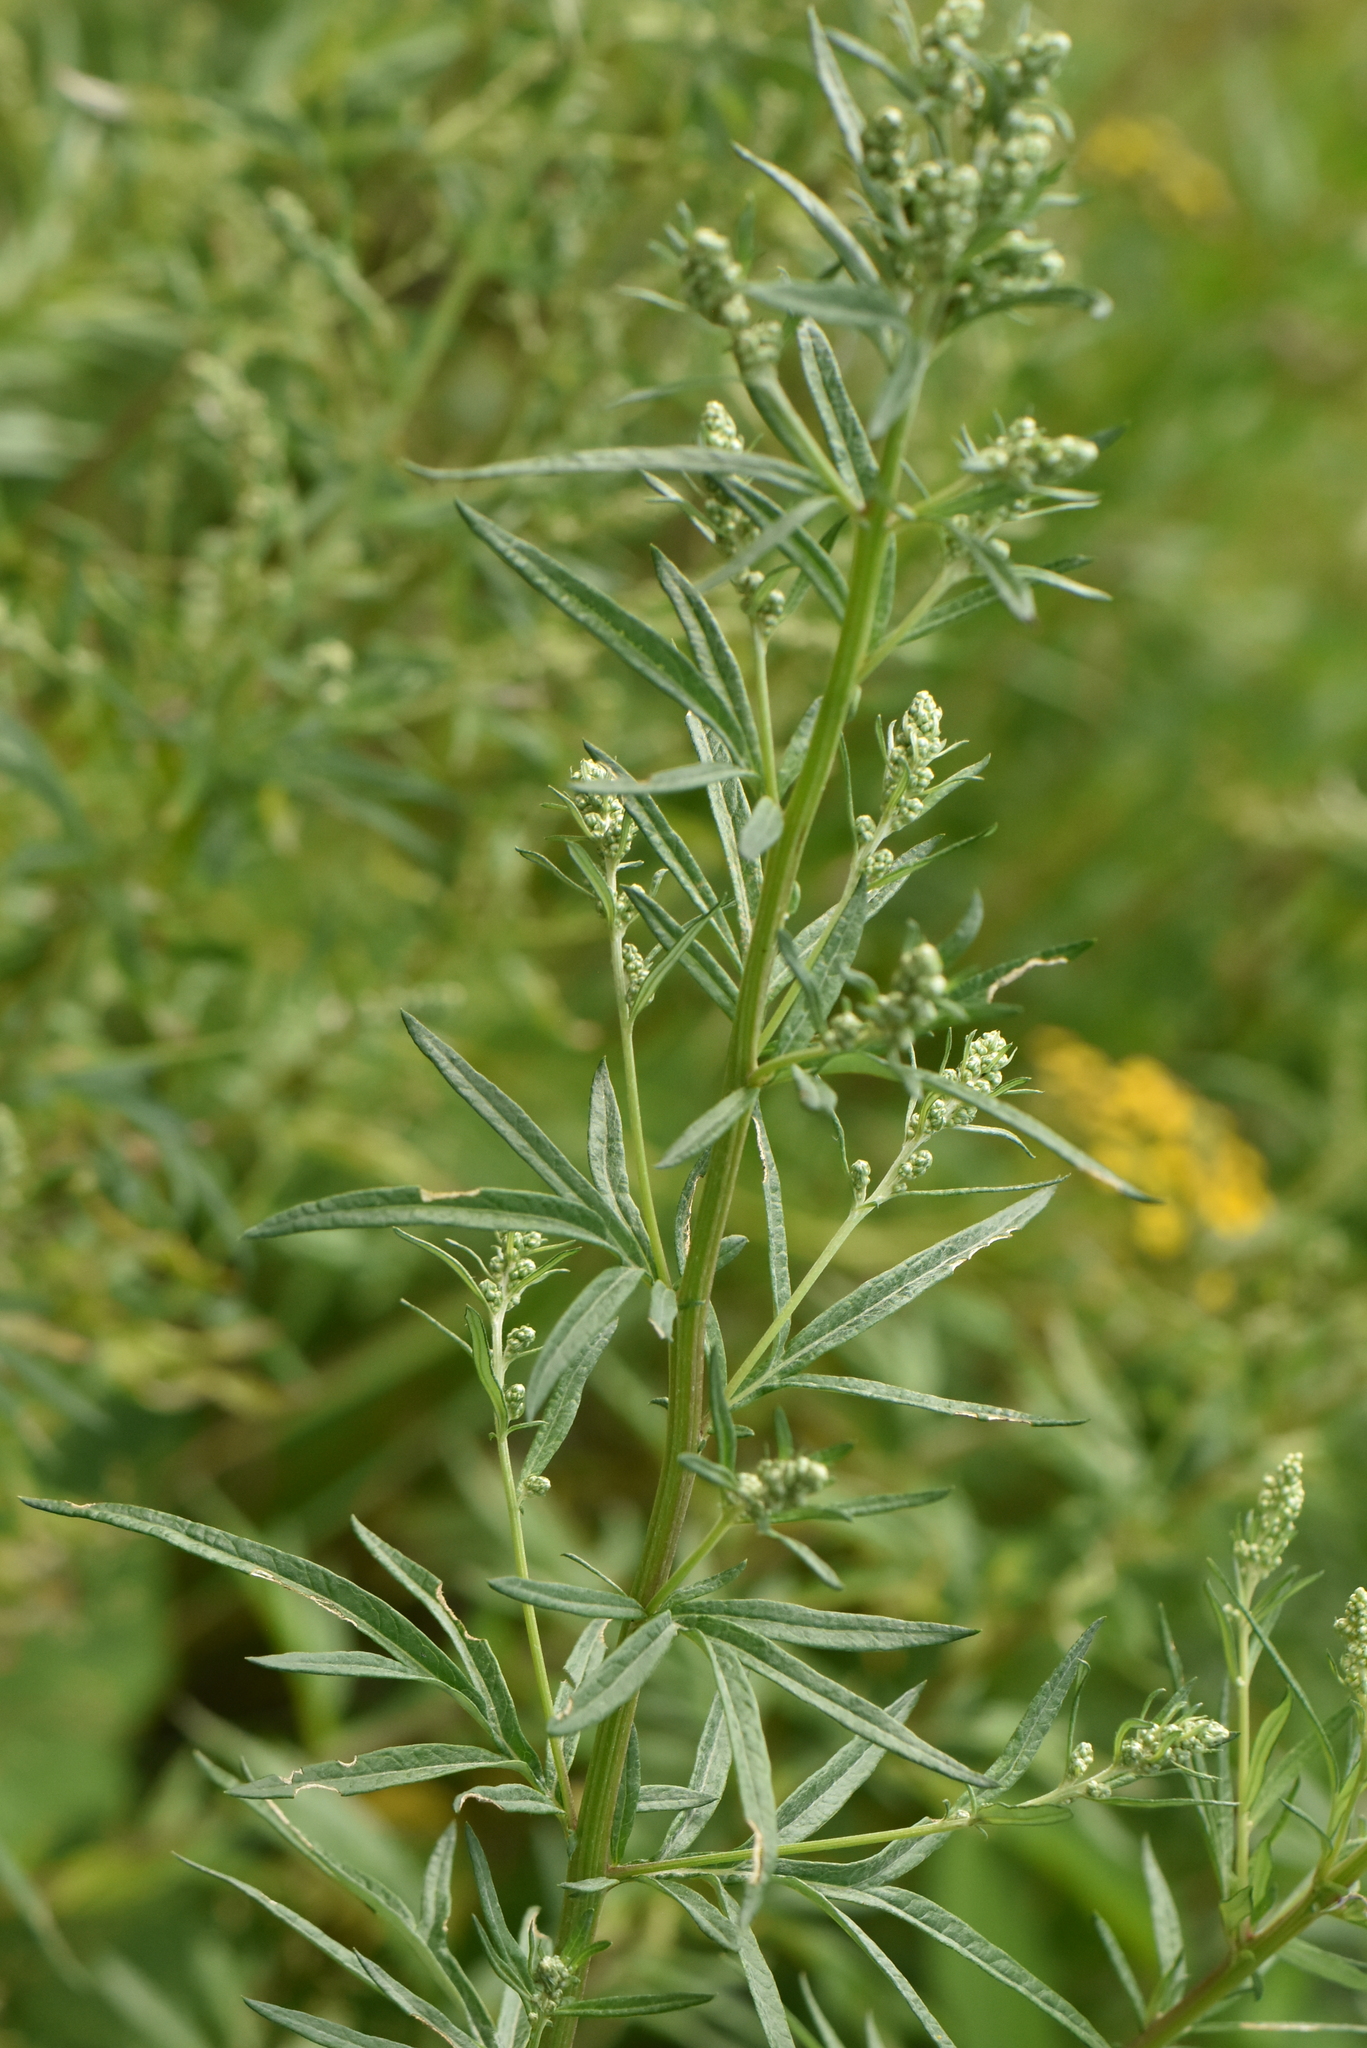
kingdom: Plantae
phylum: Tracheophyta
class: Magnoliopsida
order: Asterales
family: Asteraceae
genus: Artemisia
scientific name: Artemisia vulgaris
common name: Mugwort
